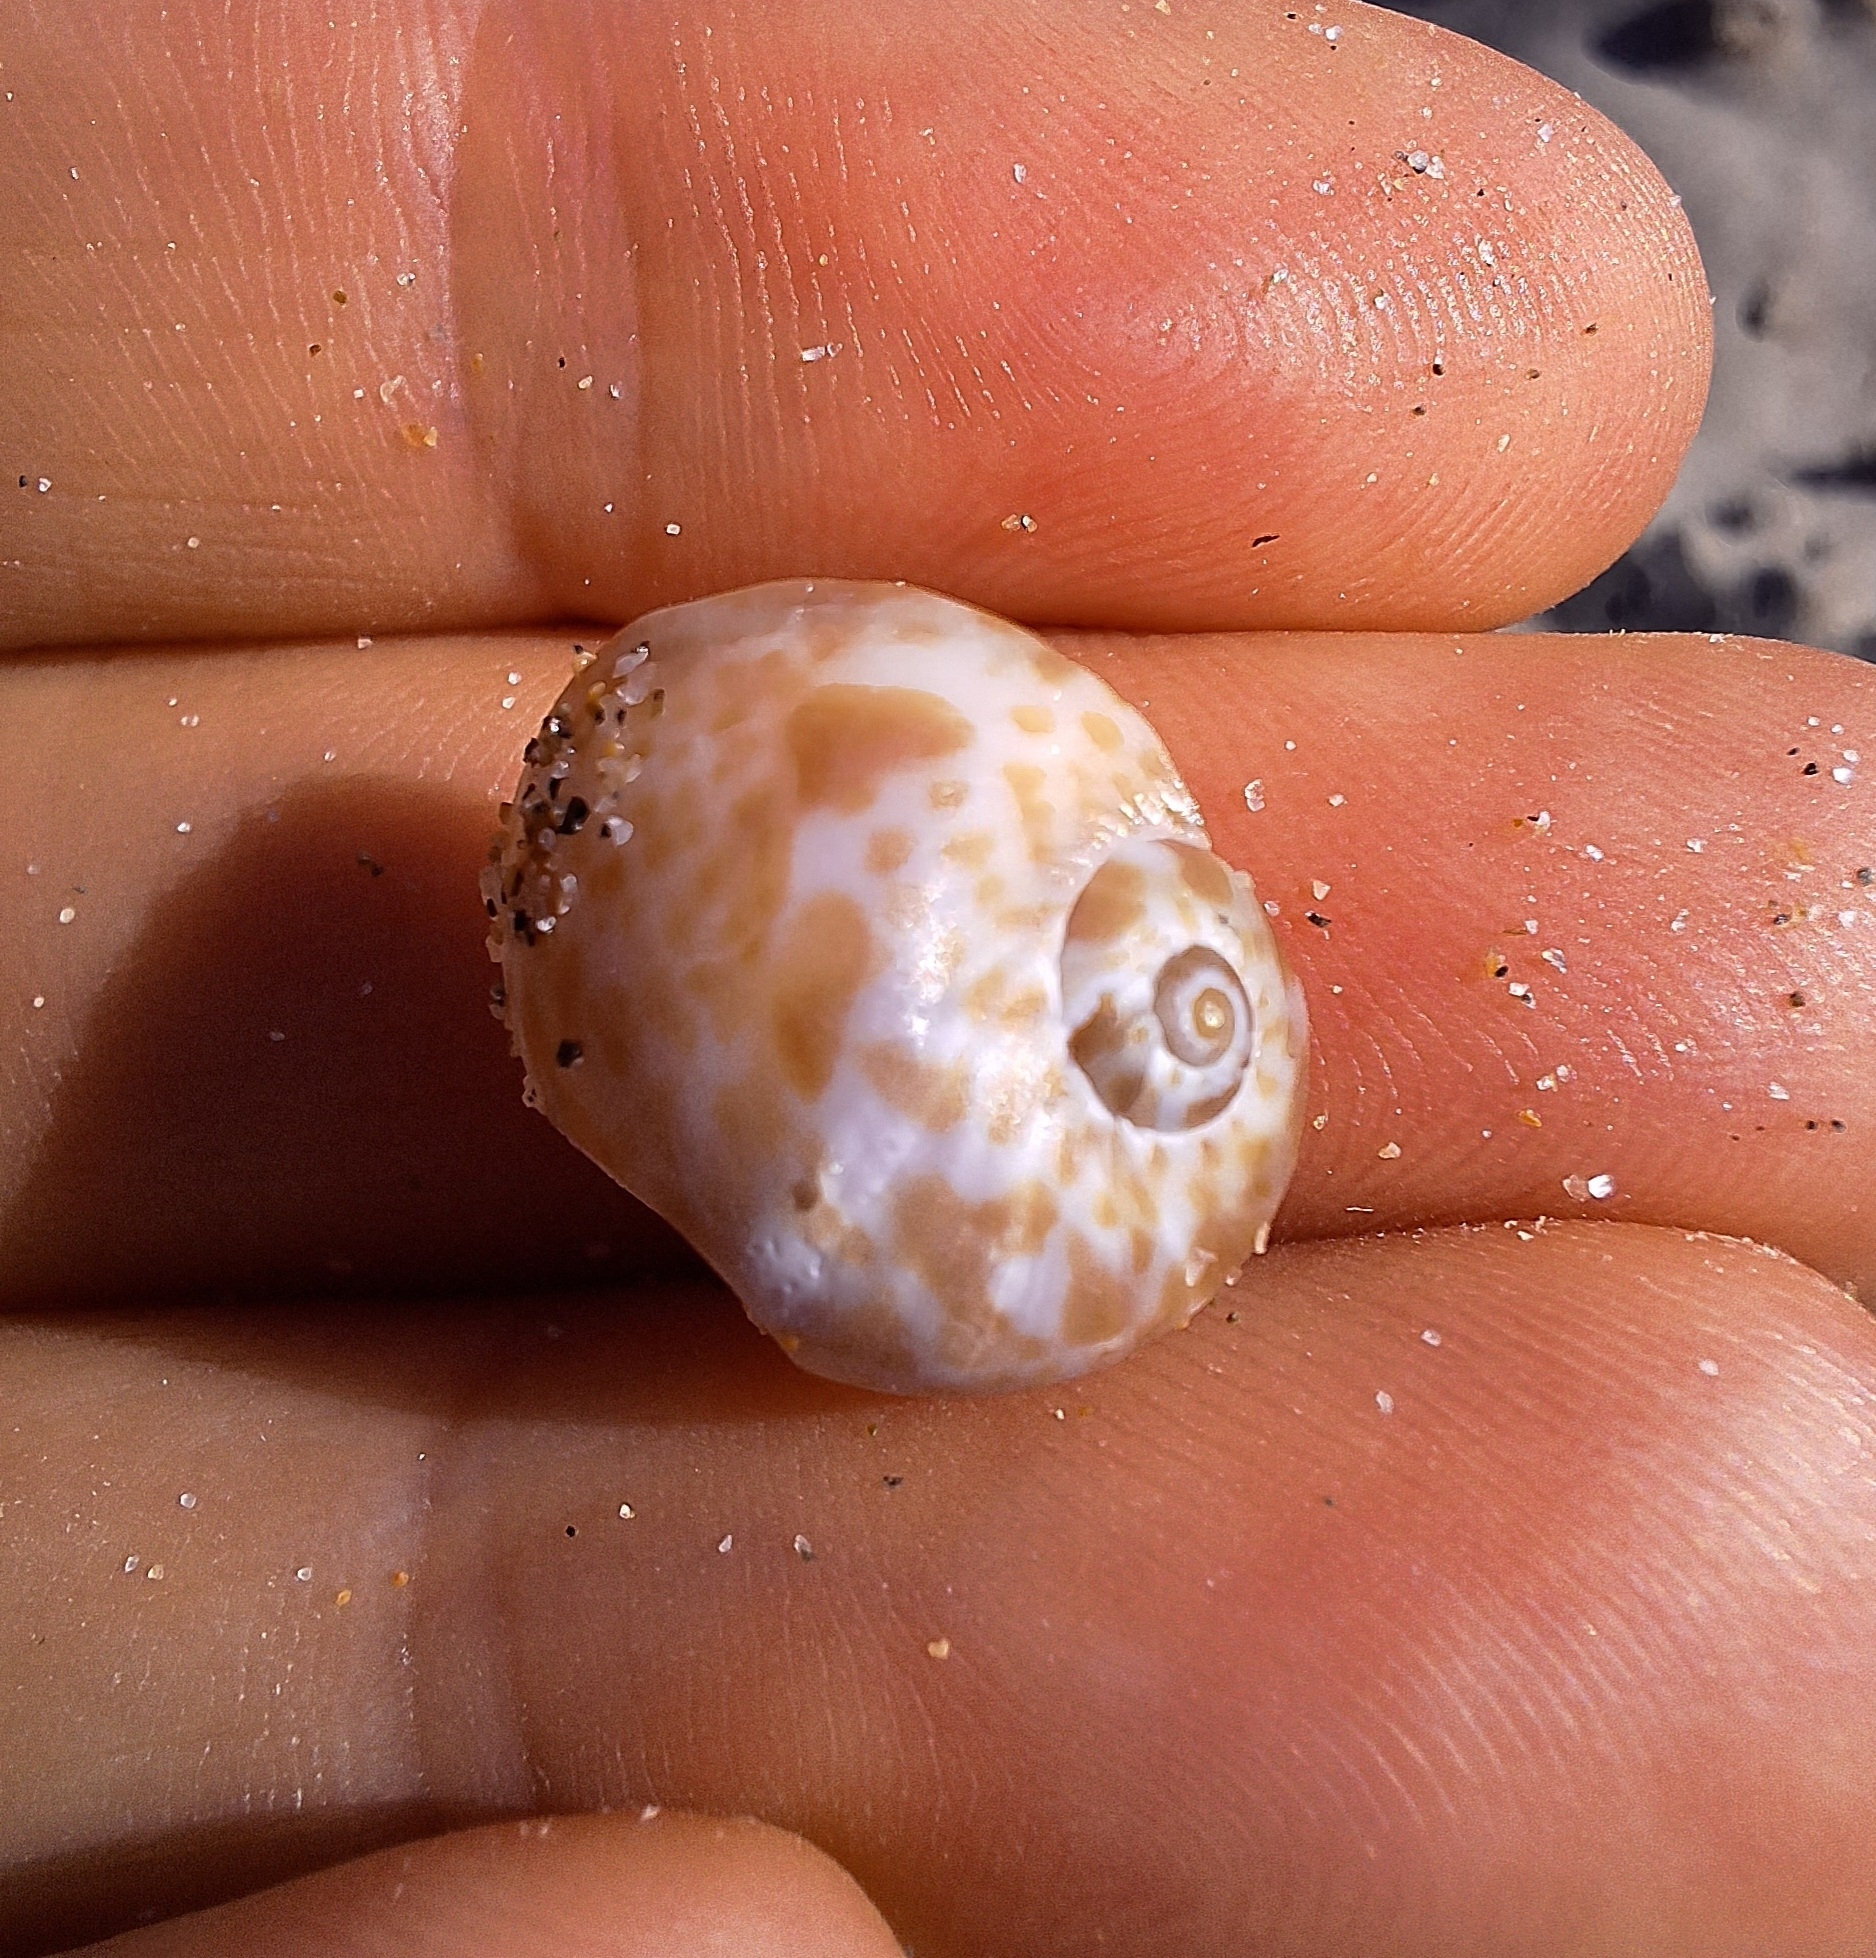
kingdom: Animalia
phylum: Mollusca
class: Gastropoda
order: Littorinimorpha
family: Naticidae
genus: Naticarius
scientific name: Naticarius hebraeus
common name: Hebrew moon shell
